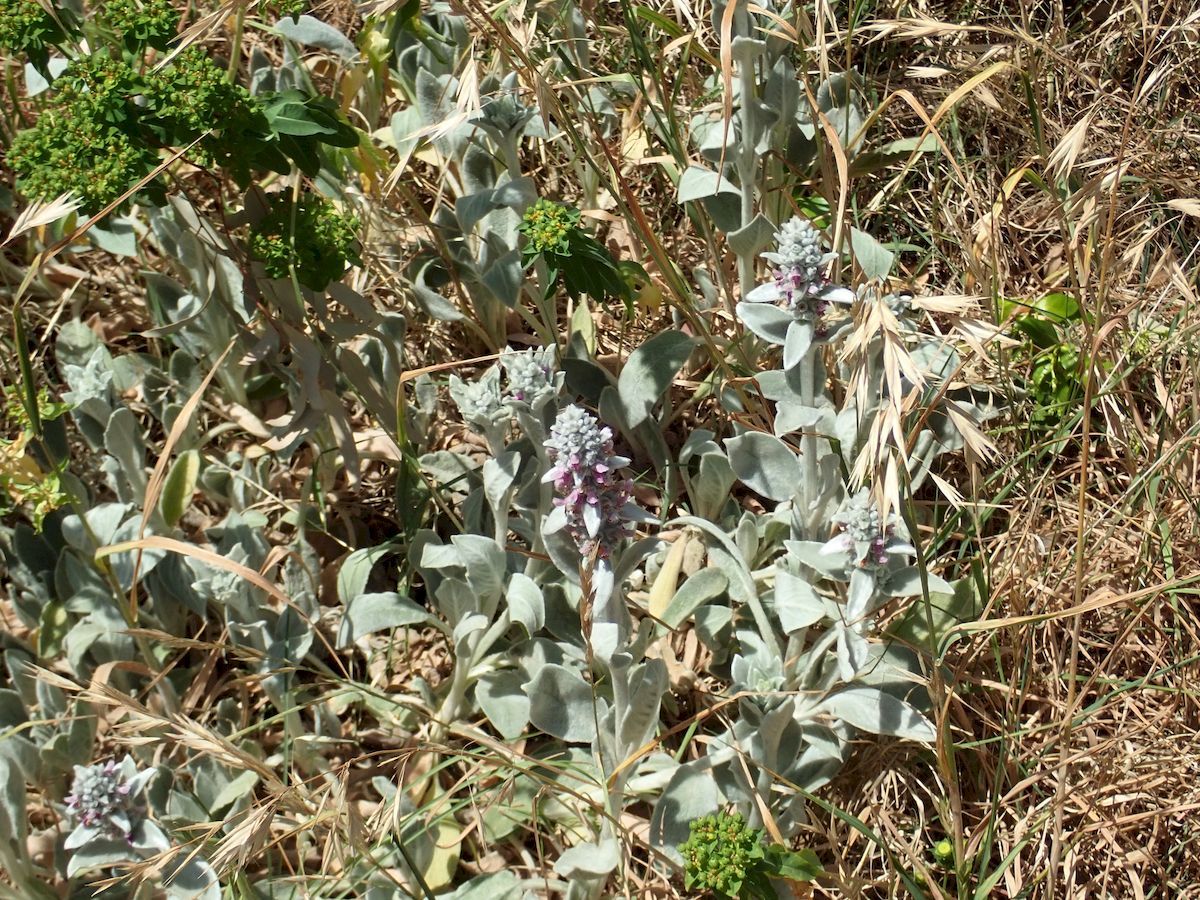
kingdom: Plantae
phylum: Tracheophyta
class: Magnoliopsida
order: Lamiales
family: Lamiaceae
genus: Stachys
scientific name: Stachys byzantina
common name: Lamb's-ear
